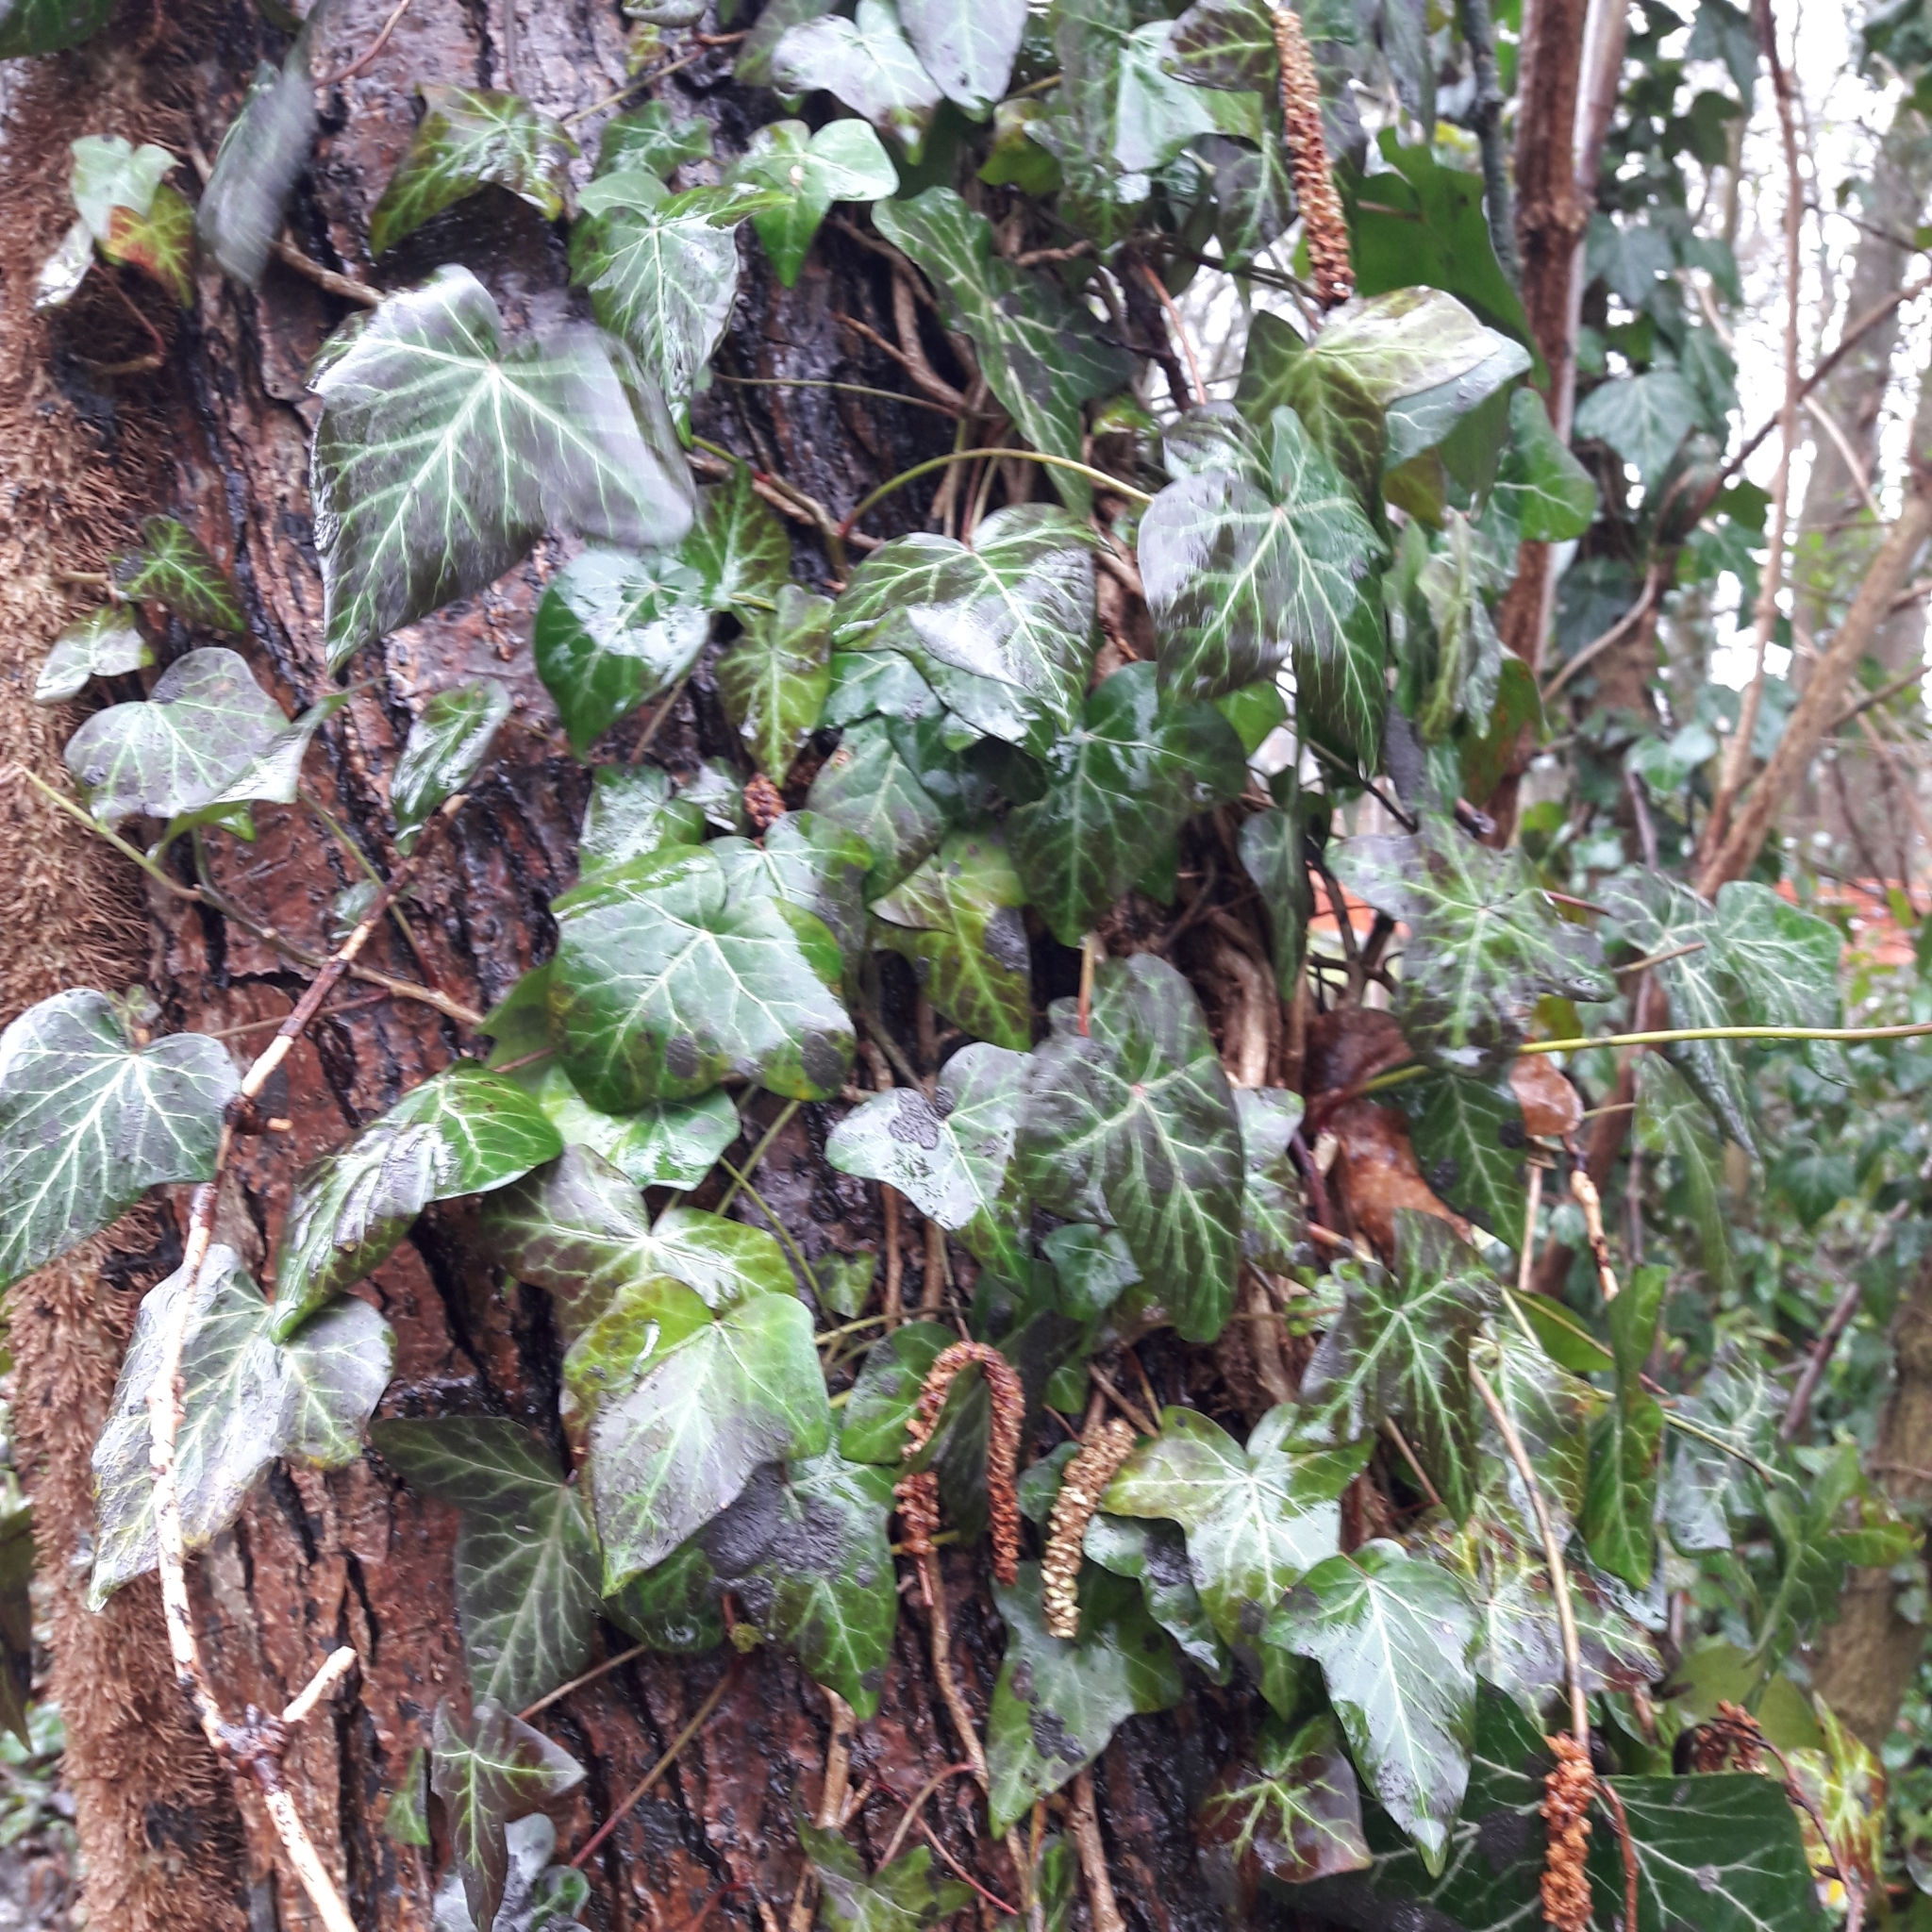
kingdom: Plantae
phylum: Tracheophyta
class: Magnoliopsida
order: Apiales
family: Araliaceae
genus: Hedera
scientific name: Hedera helix
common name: Ivy
